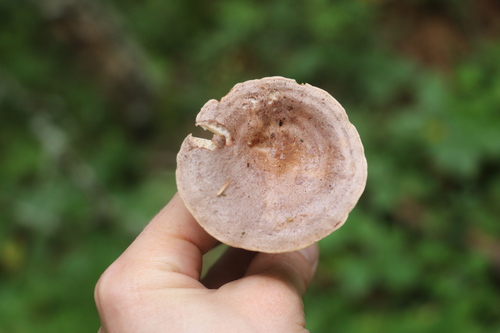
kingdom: Fungi
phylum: Basidiomycota
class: Agaricomycetes
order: Russulales
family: Russulaceae
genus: Lactarius
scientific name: Lactarius trivialis
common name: Tacked milkcap
